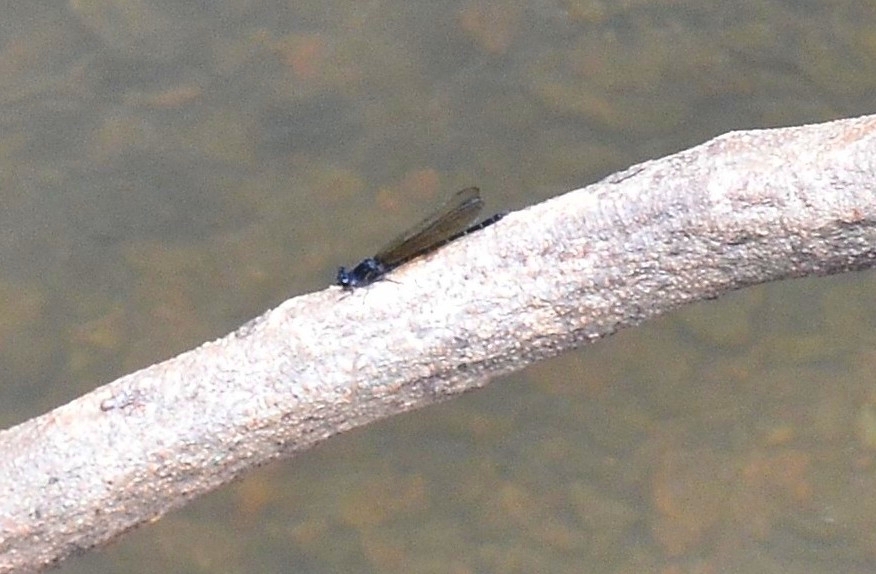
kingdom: Animalia
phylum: Arthropoda
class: Insecta
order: Odonata
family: Euphaeidae
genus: Dysphaea
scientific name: Dysphaea ethela
